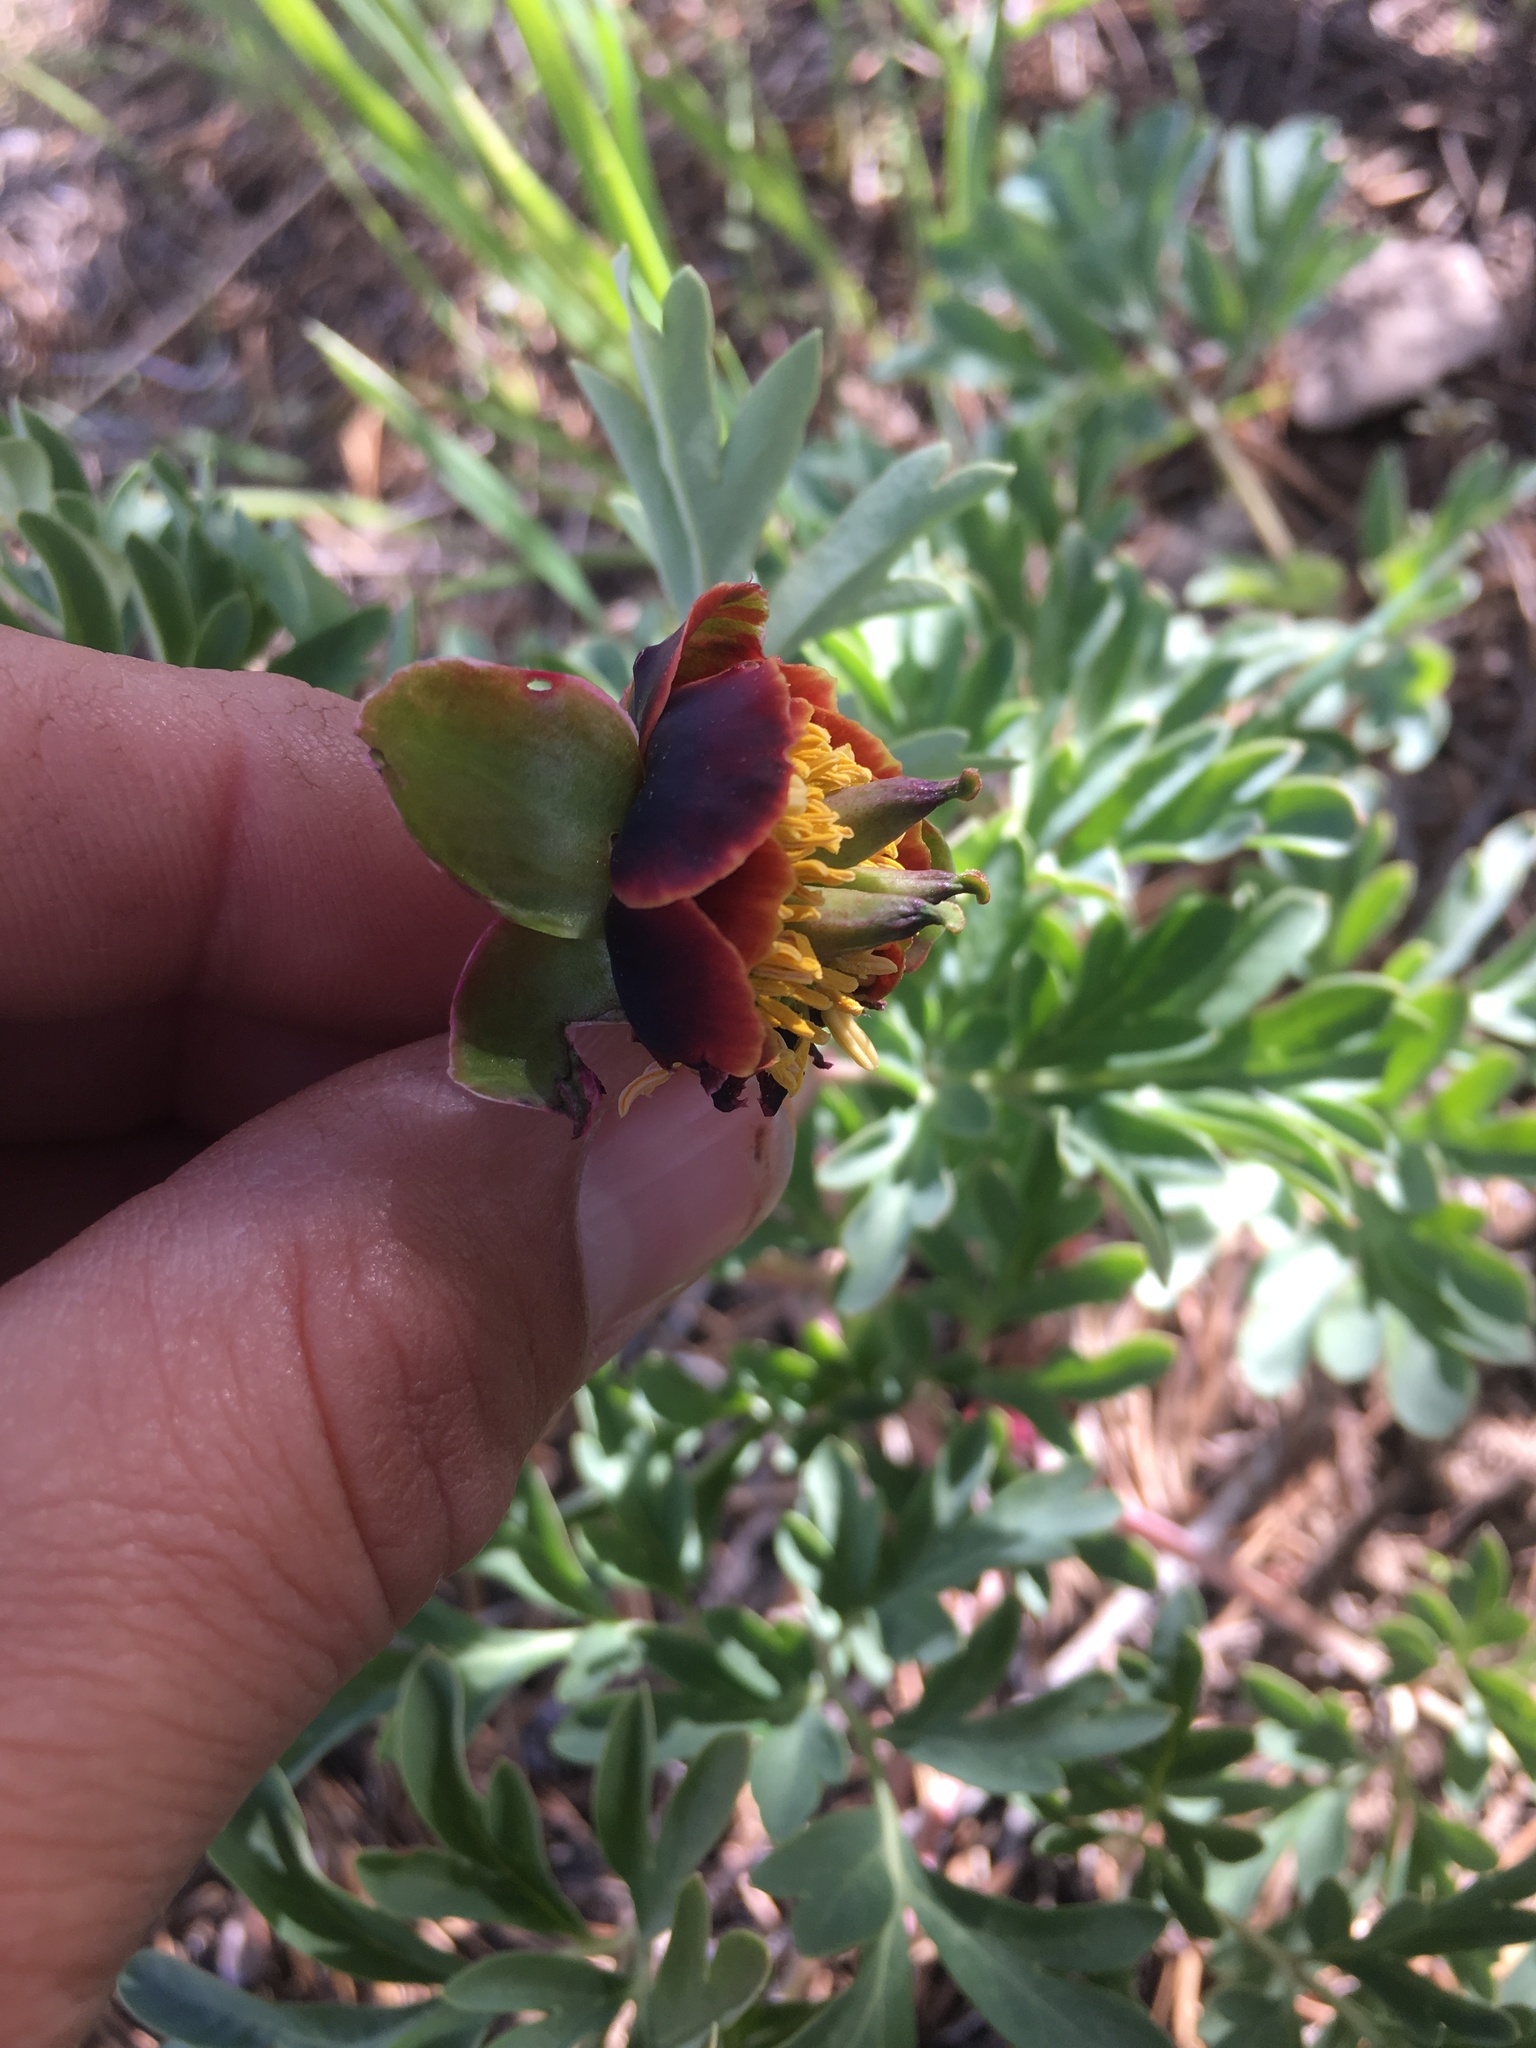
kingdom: Plantae
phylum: Tracheophyta
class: Magnoliopsida
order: Saxifragales
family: Paeoniaceae
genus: Paeonia
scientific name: Paeonia brownii
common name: Brown's peony
